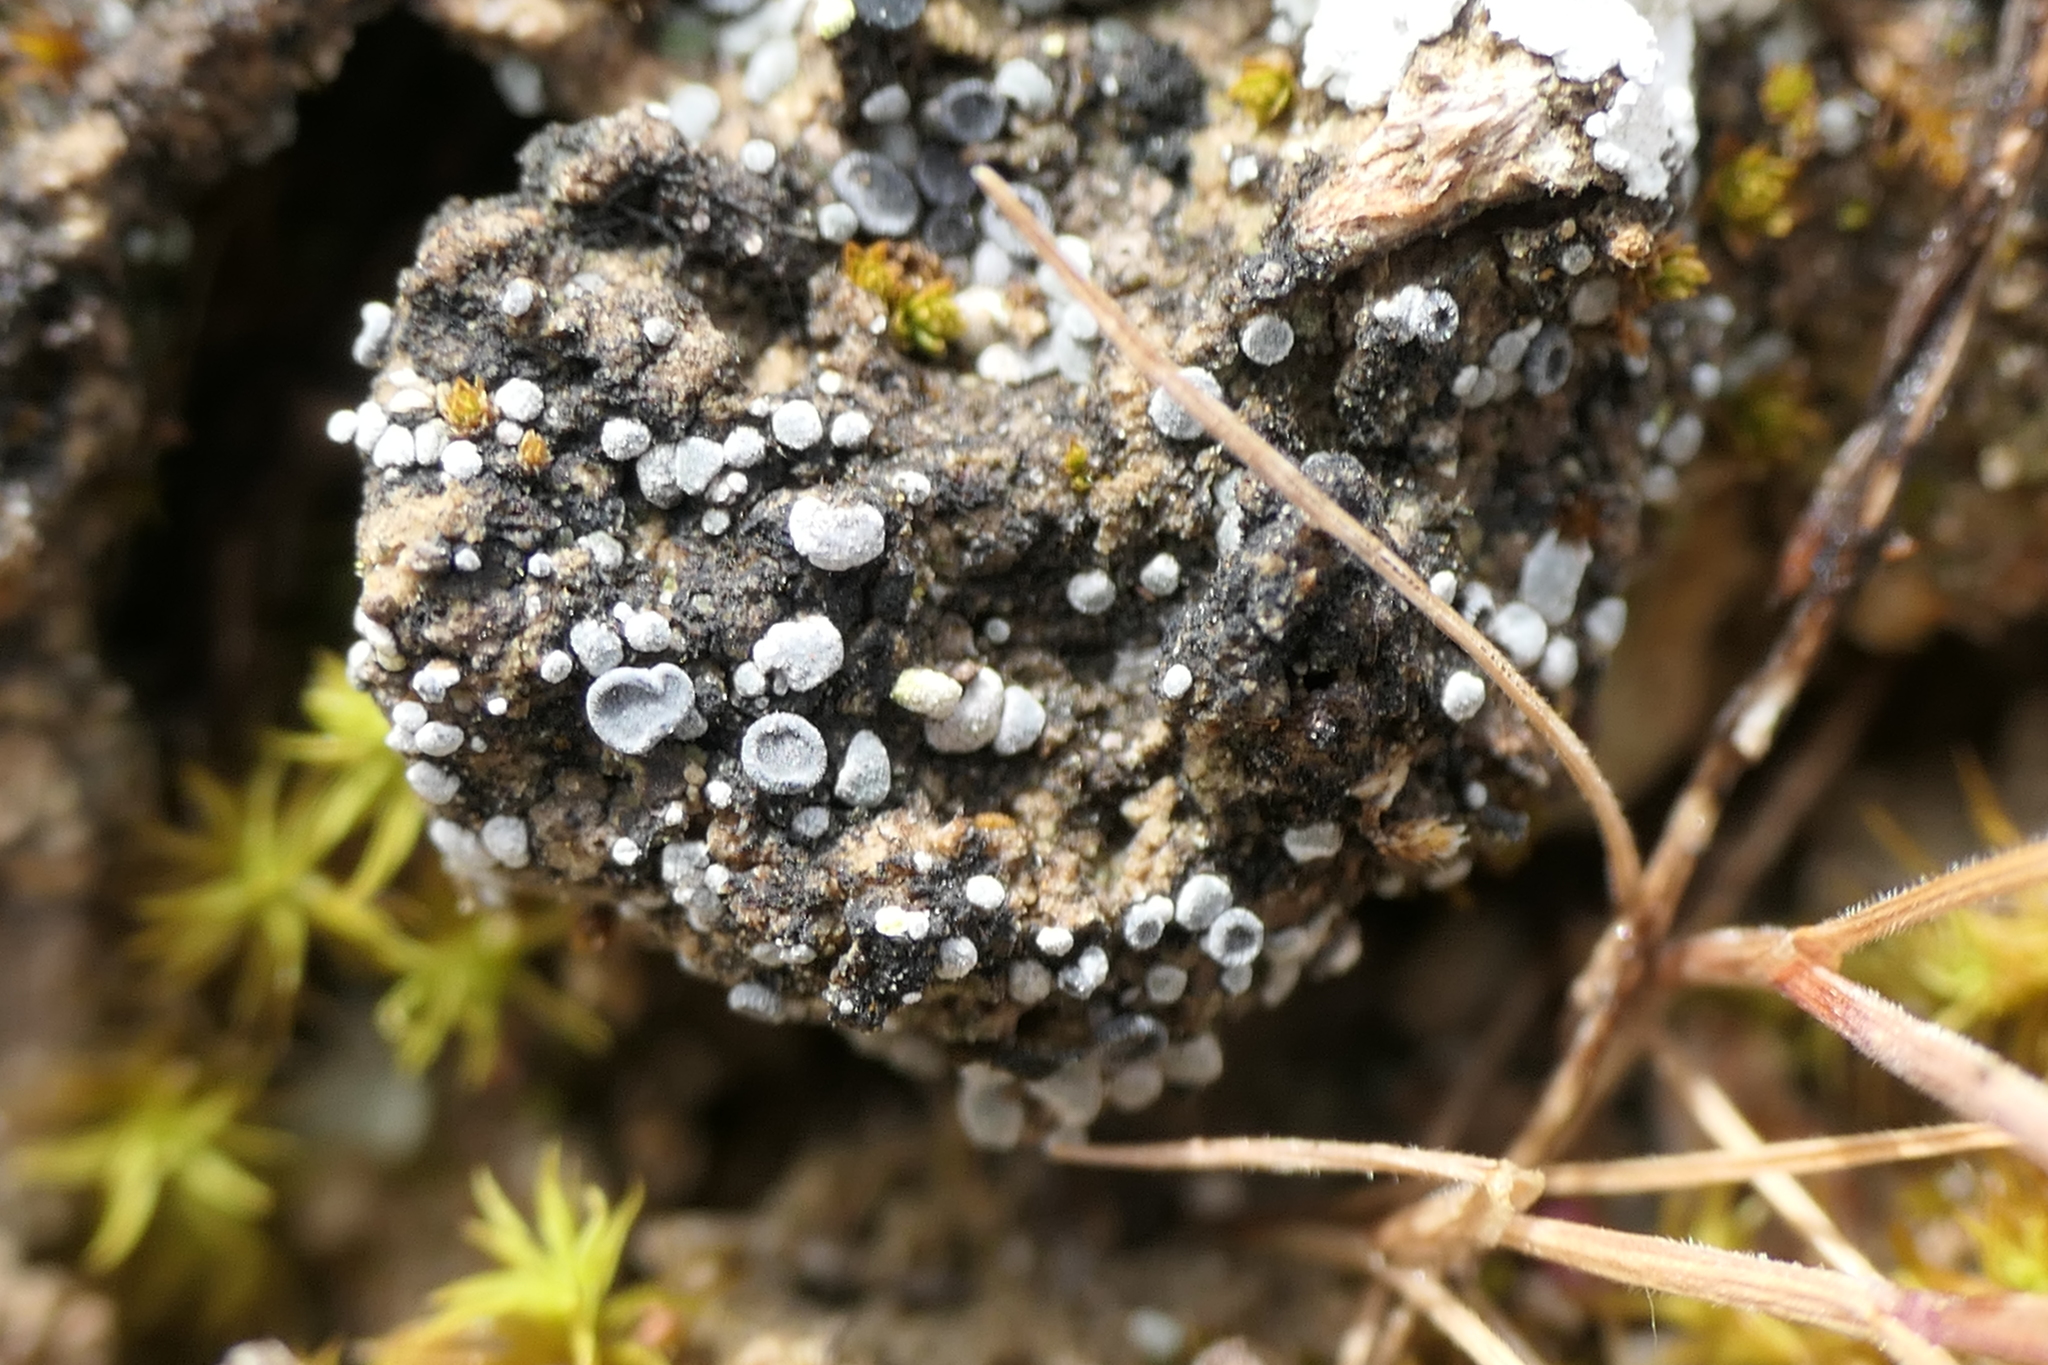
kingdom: Fungi
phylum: Ascomycota
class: Lecanoromycetes
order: Lecanorales
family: Ramalinaceae
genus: Thalloidima
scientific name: Thalloidima sedifolium
